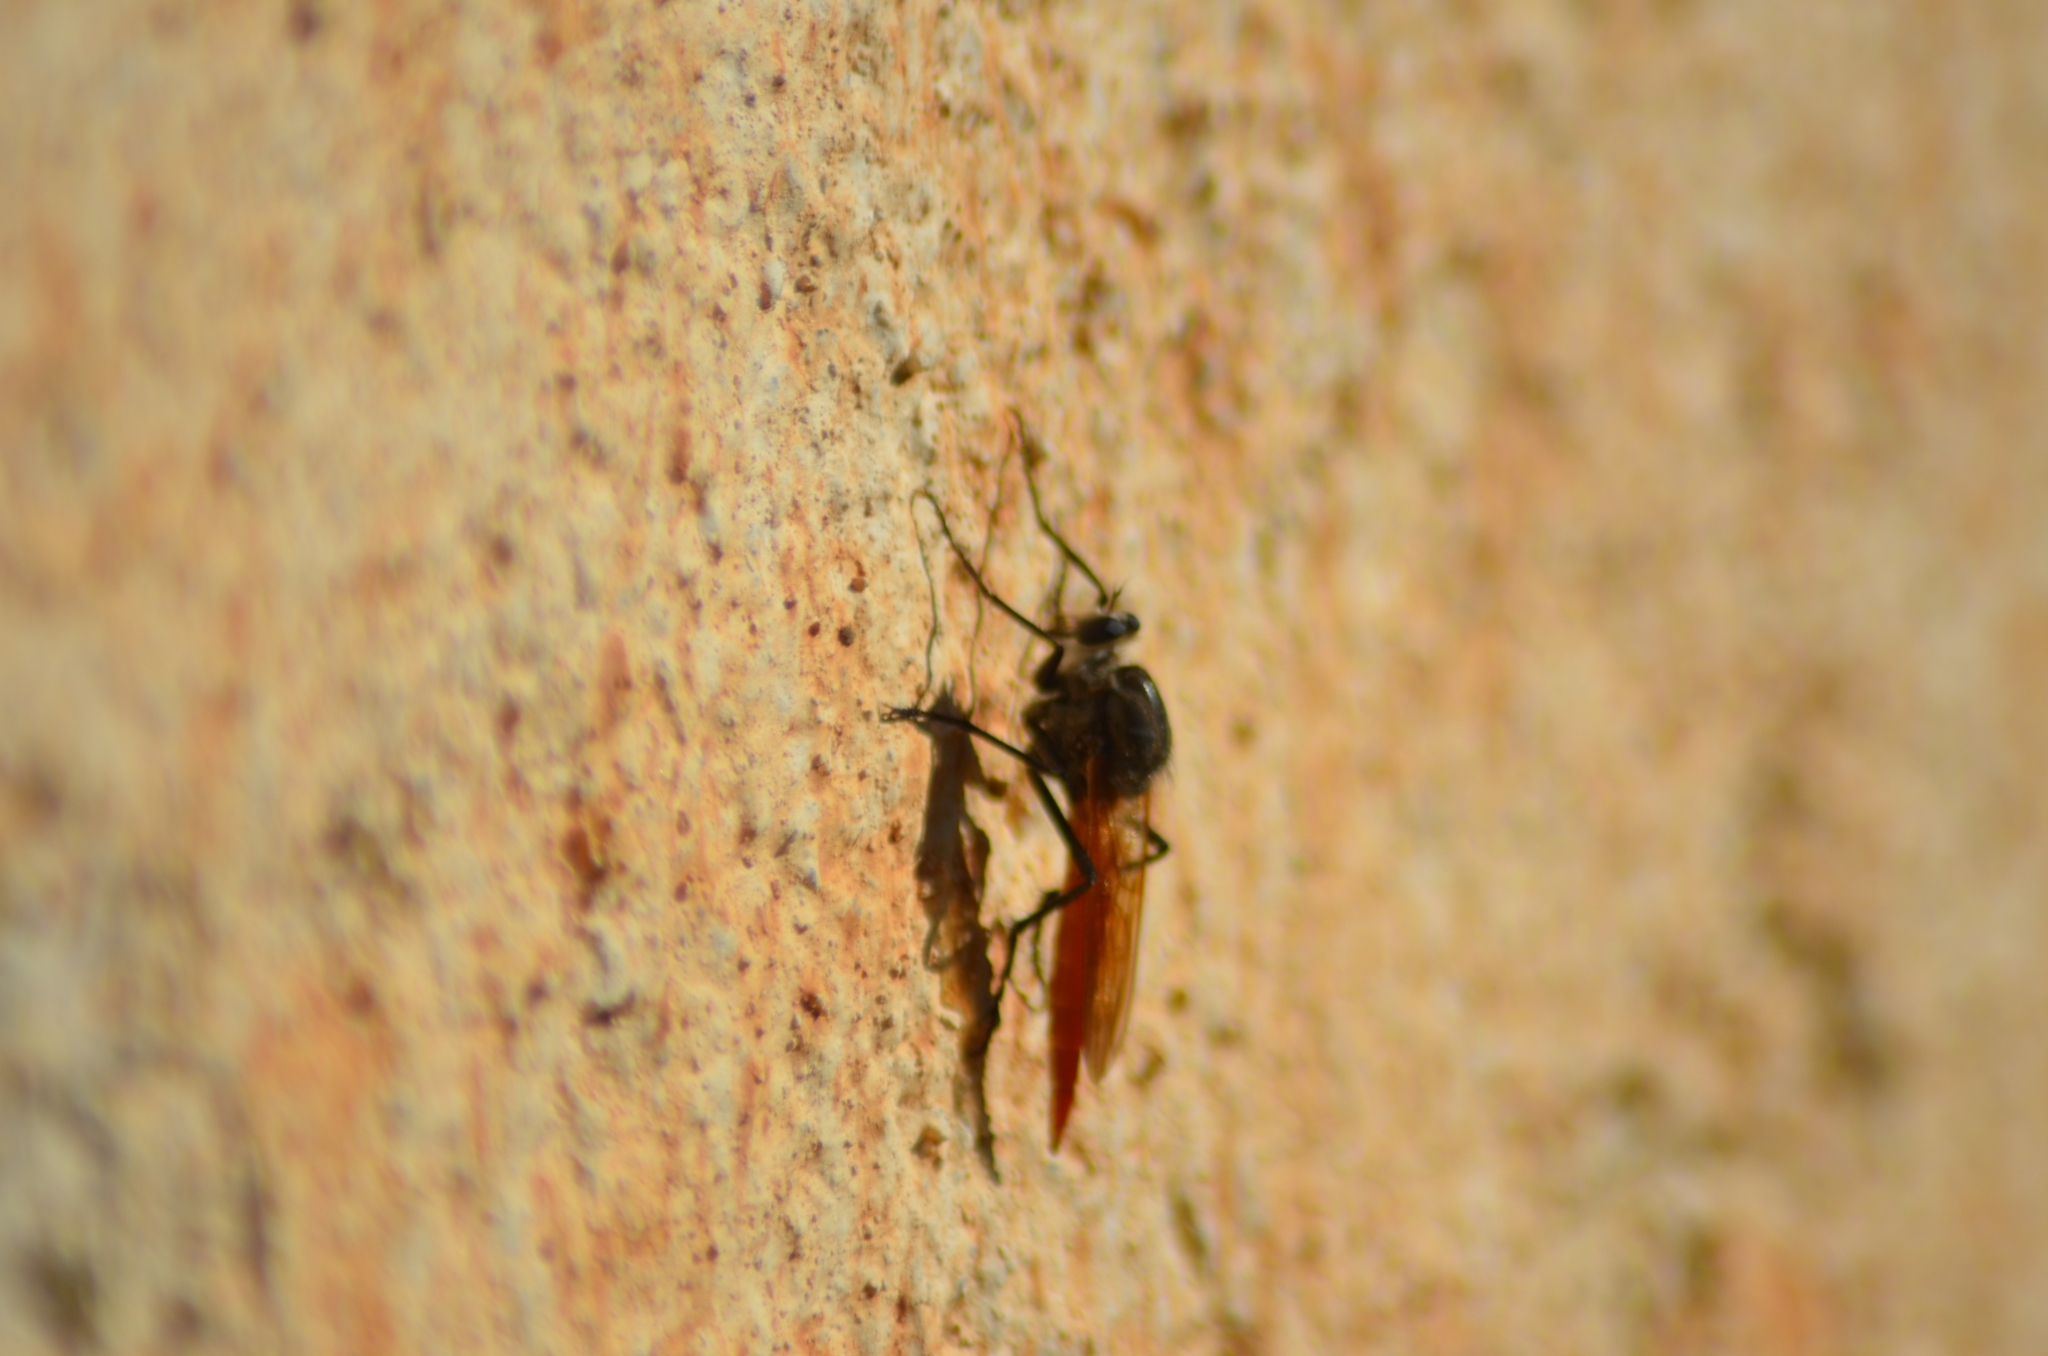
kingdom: Animalia
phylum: Arthropoda
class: Insecta
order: Diptera
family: Asilidae
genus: Eccoptopus
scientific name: Eccoptopus longitarsis
